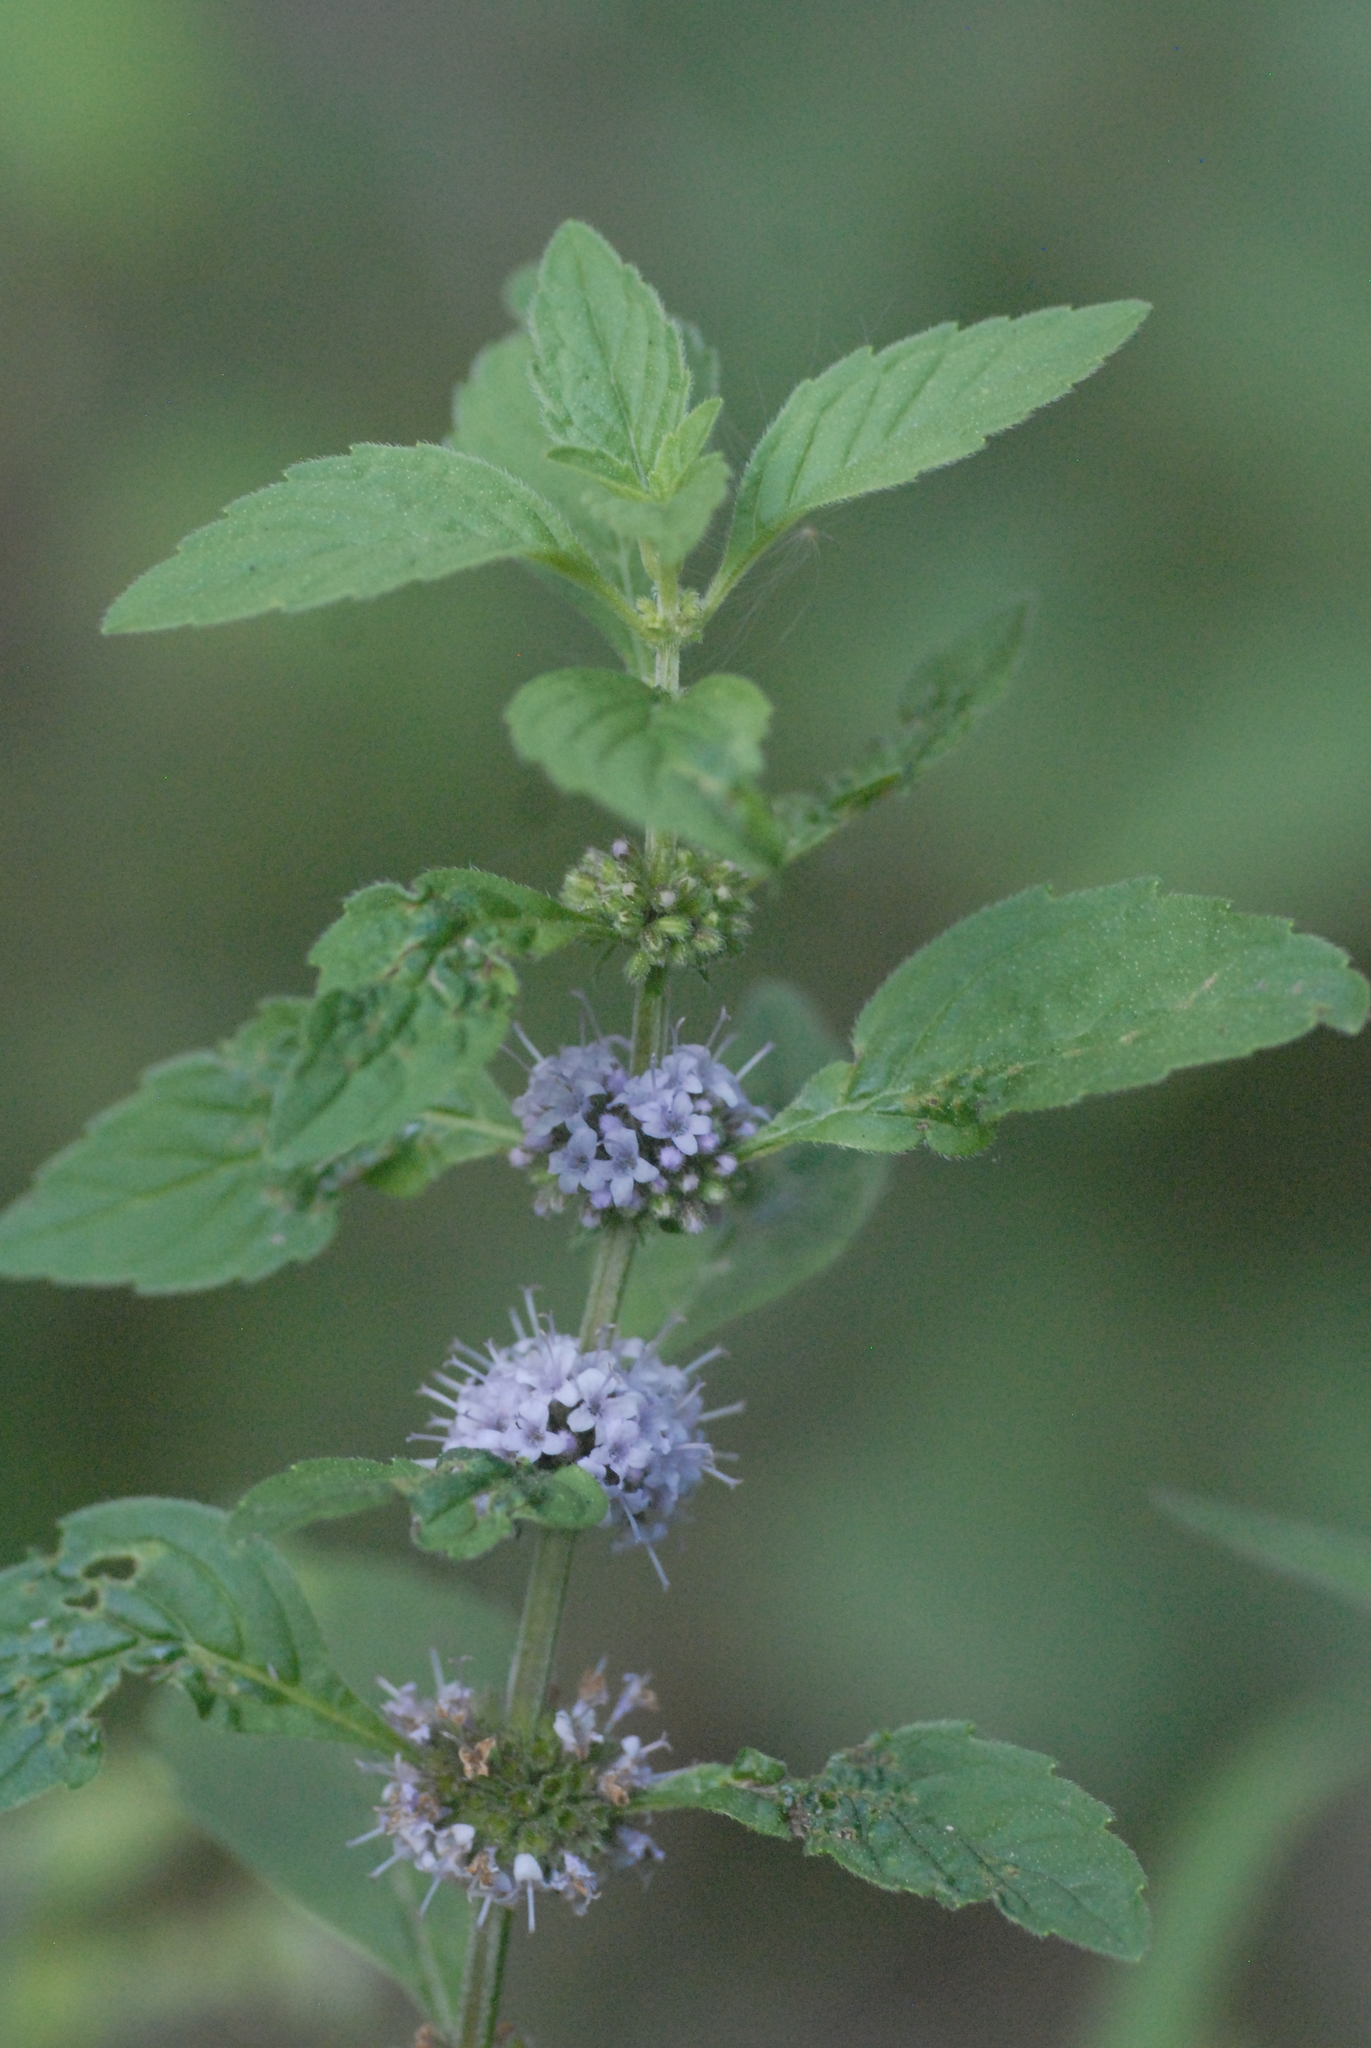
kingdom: Plantae
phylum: Tracheophyta
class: Magnoliopsida
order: Lamiales
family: Lamiaceae
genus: Mentha
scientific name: Mentha arvensis
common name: Corn mint
